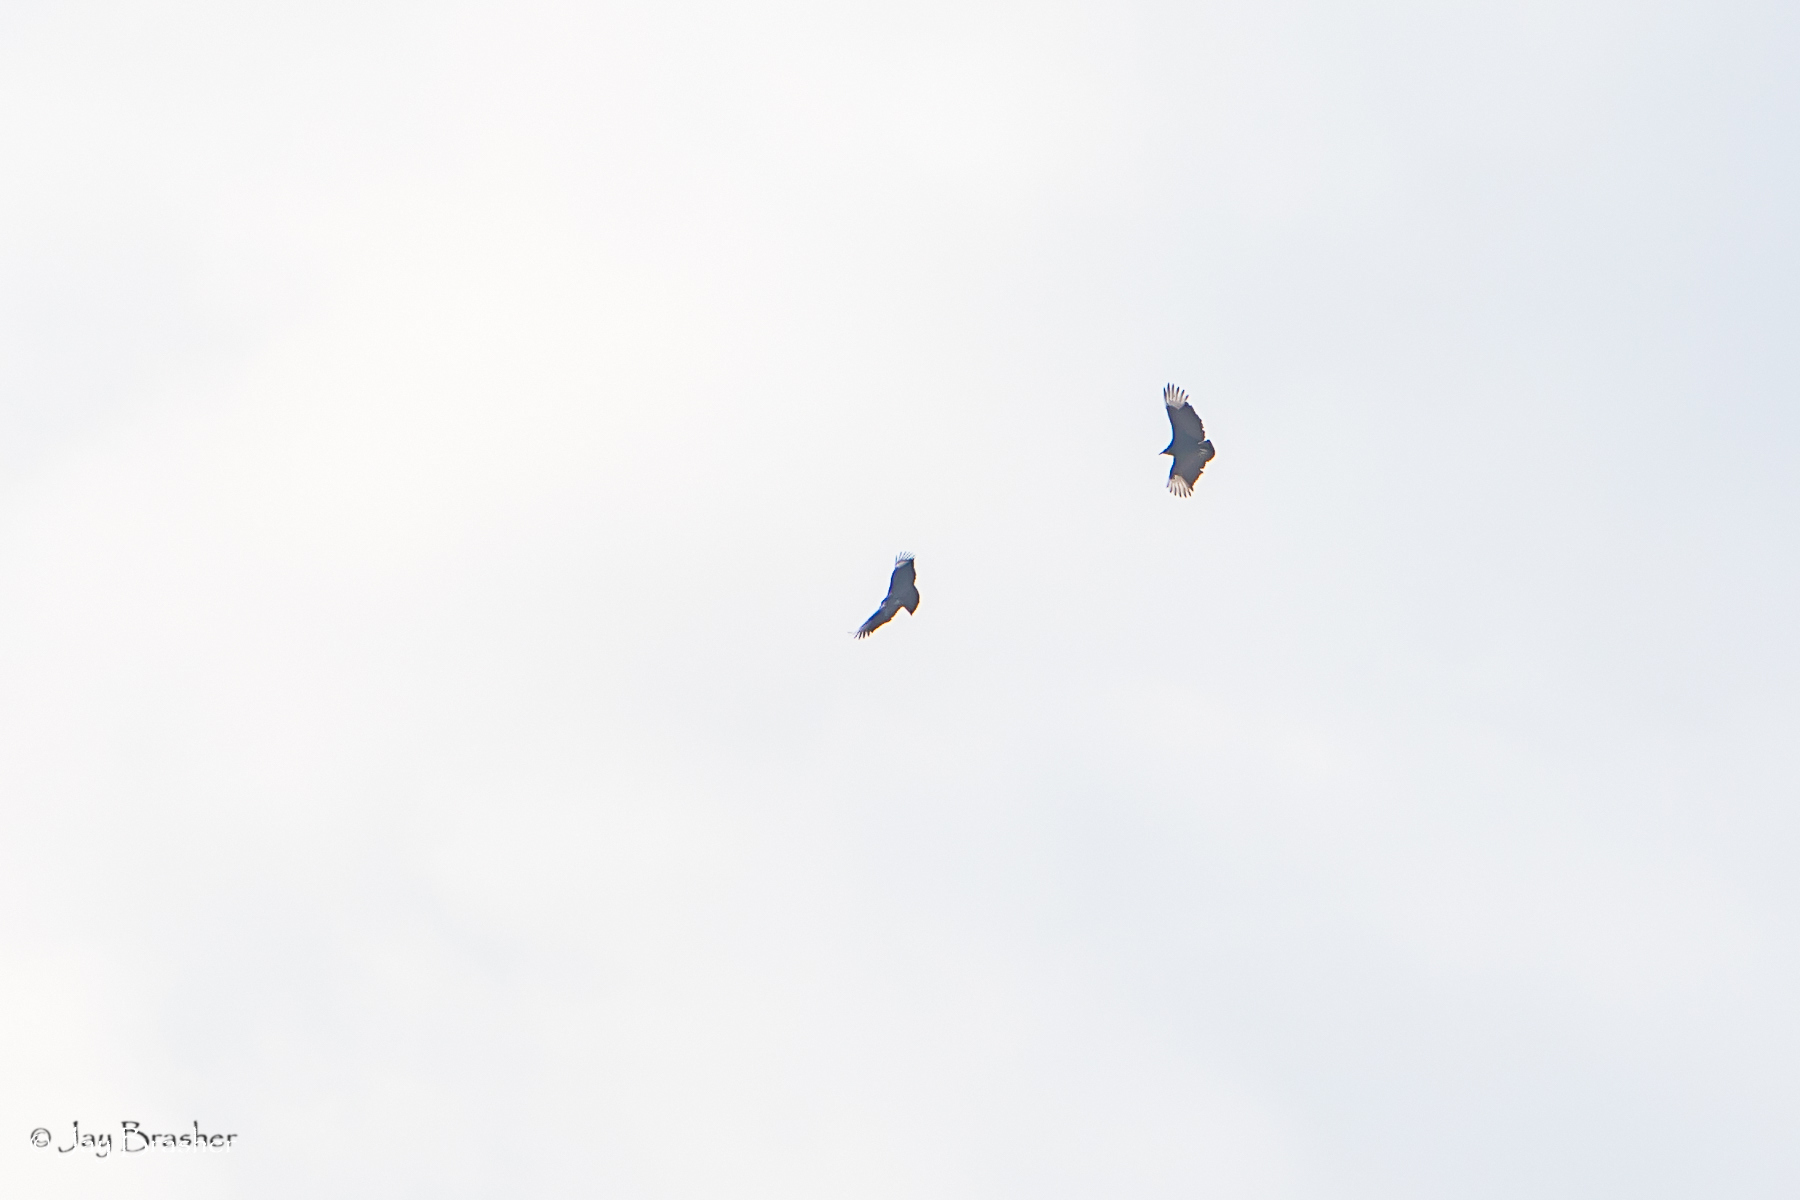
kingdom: Animalia
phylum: Chordata
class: Aves
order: Accipitriformes
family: Cathartidae
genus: Coragyps
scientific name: Coragyps atratus
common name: Black vulture
